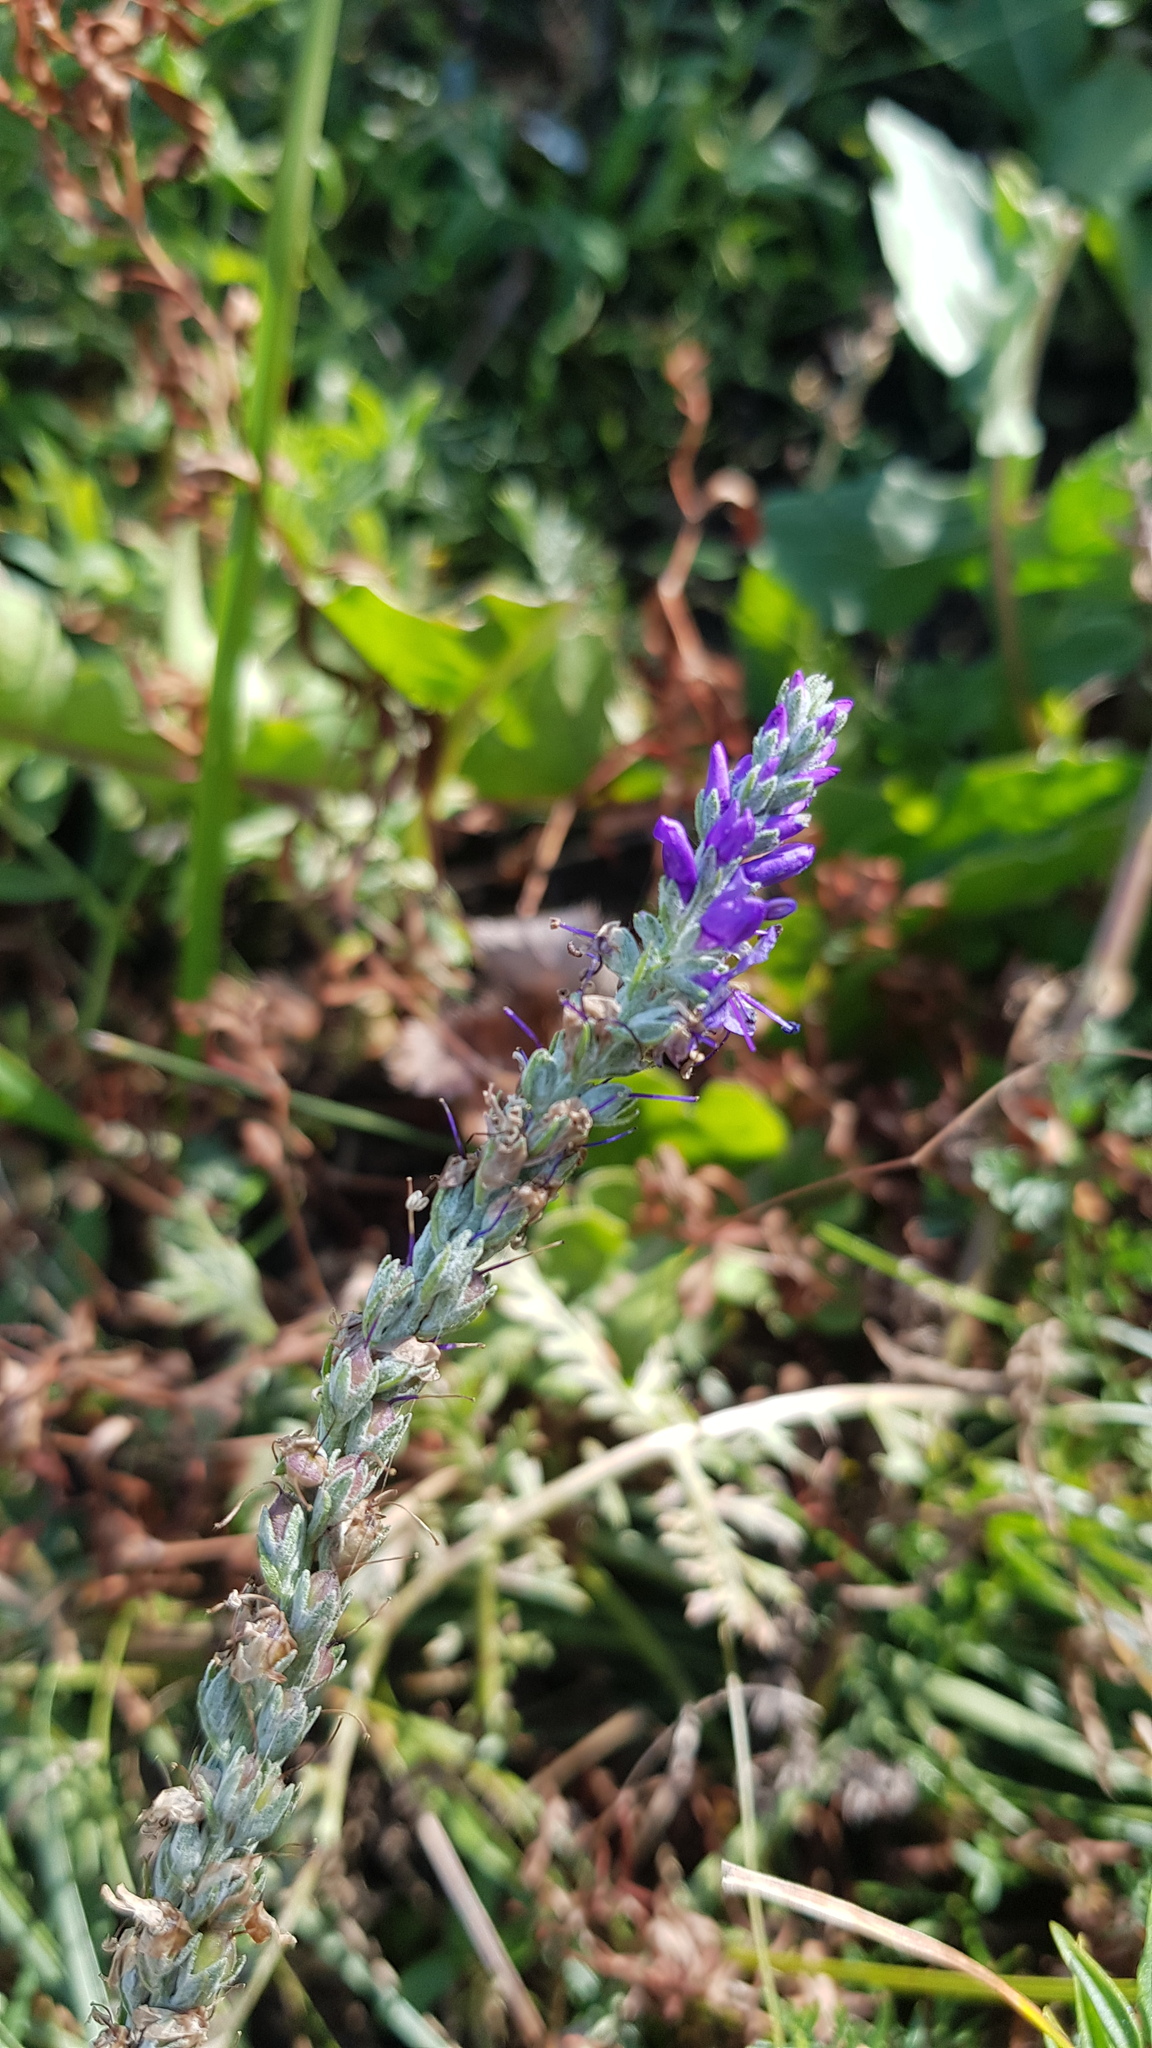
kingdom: Plantae
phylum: Tracheophyta
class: Magnoliopsida
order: Lamiales
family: Plantaginaceae
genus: Veronica
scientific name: Veronica incana
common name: Silver speedwell
